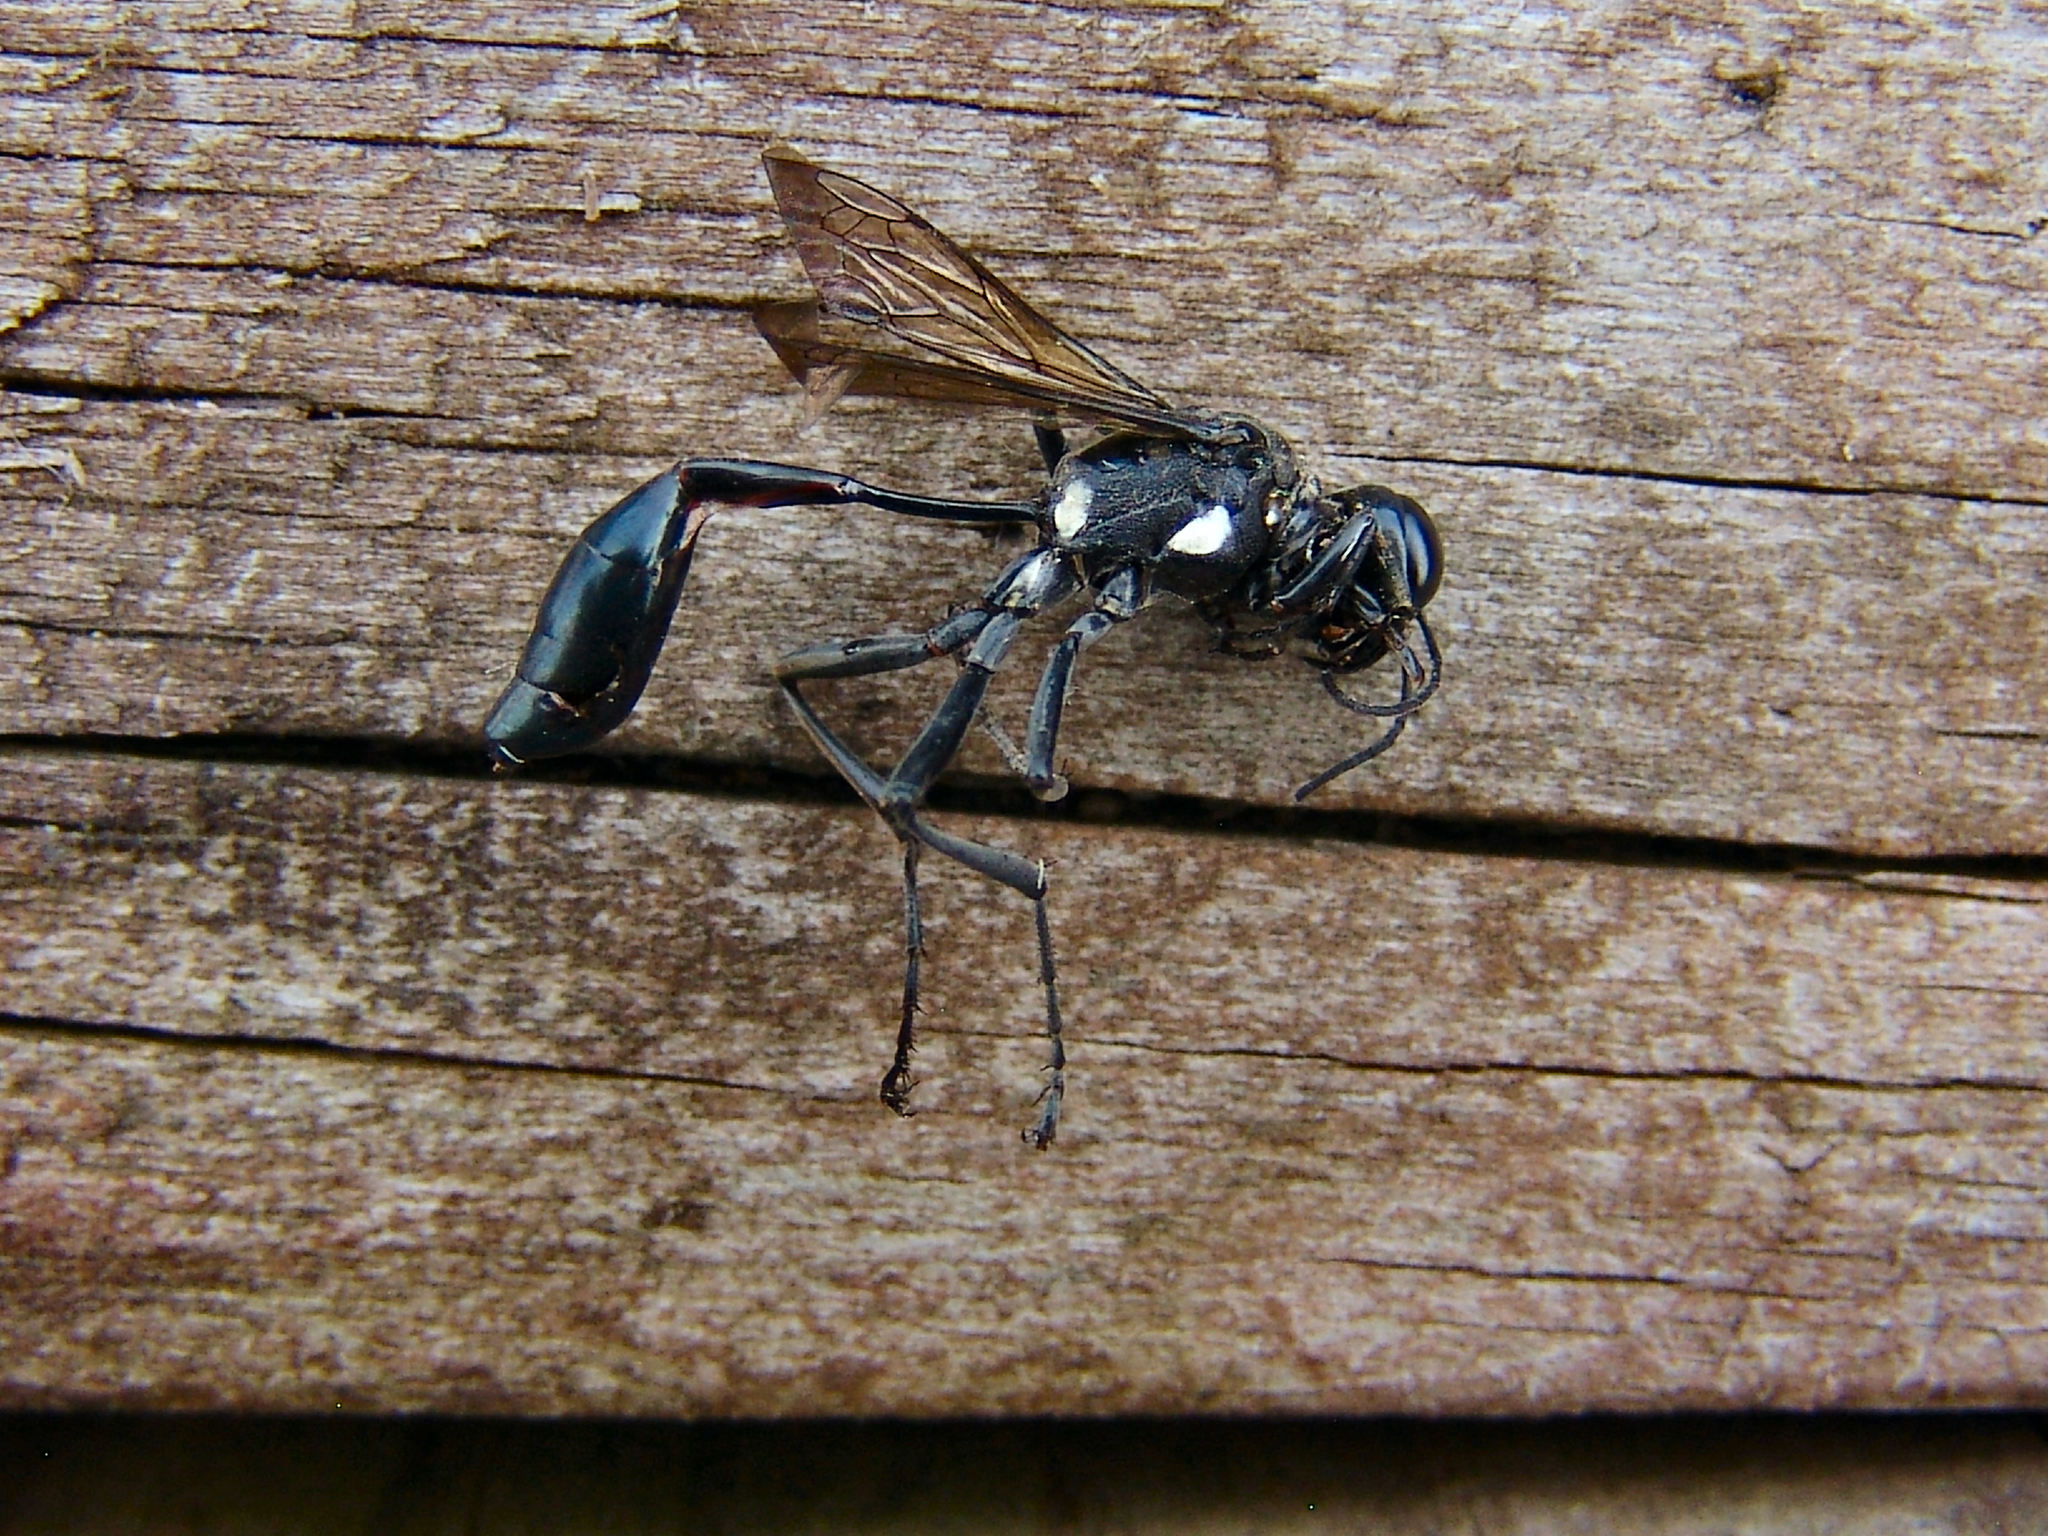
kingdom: Animalia
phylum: Arthropoda
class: Insecta
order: Hymenoptera
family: Sphecidae
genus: Eremnophila
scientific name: Eremnophila aureonotata
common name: Gold-marked thread-waisted wasp
